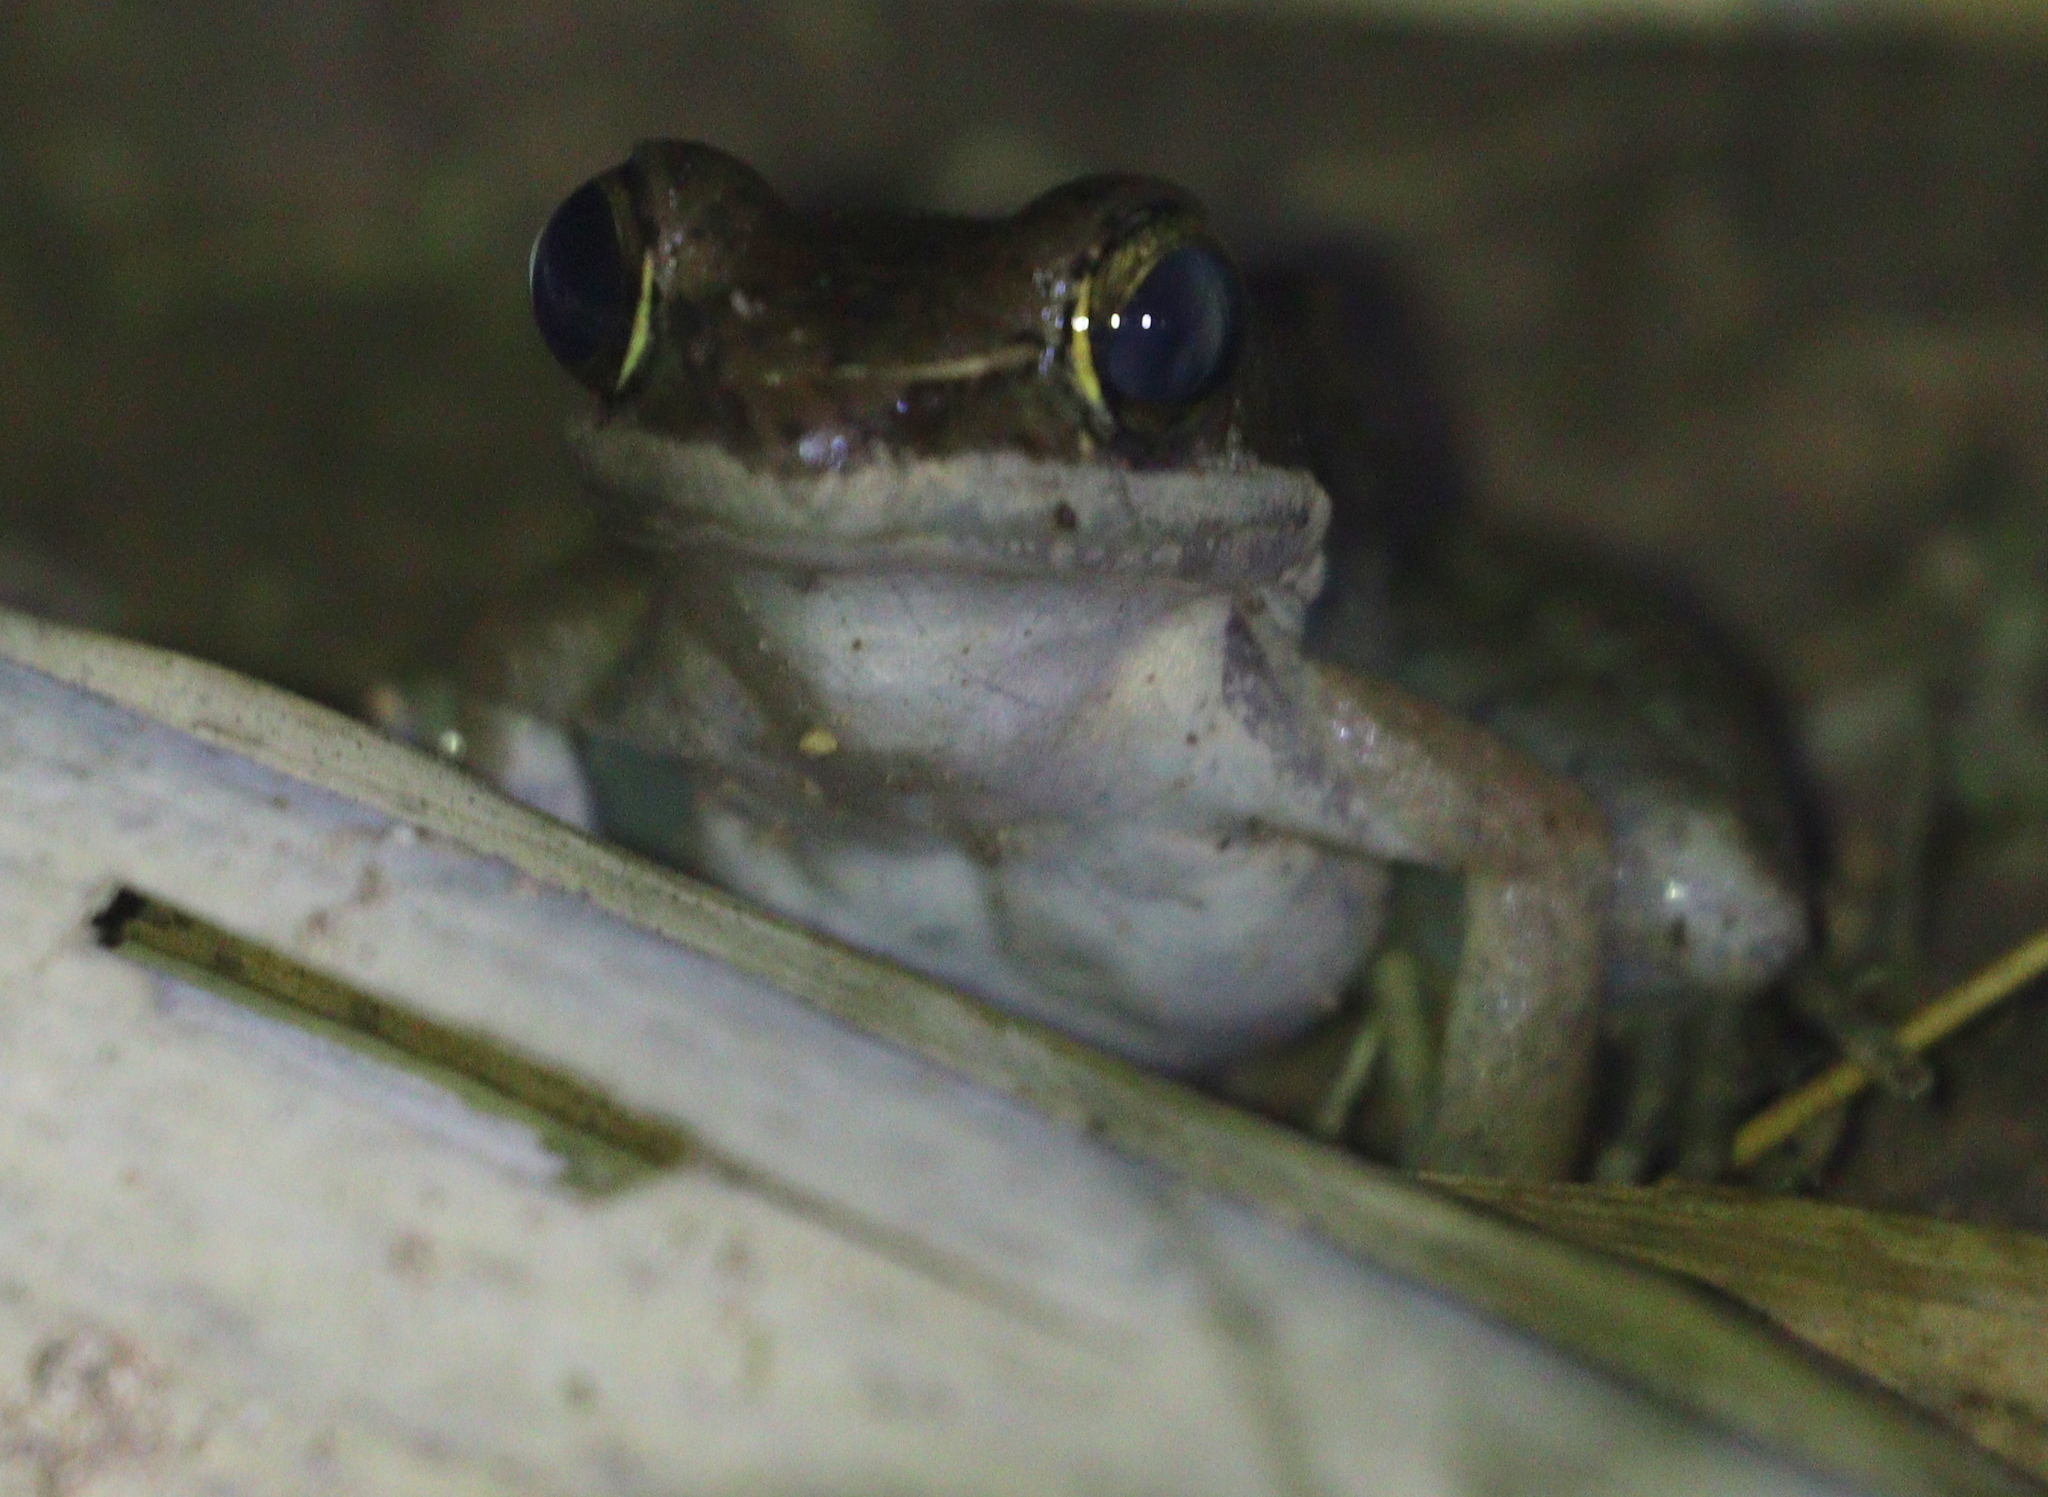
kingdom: Animalia
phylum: Chordata
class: Amphibia
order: Anura
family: Ranidae
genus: Sylvirana
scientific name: Sylvirana nigrovittata
